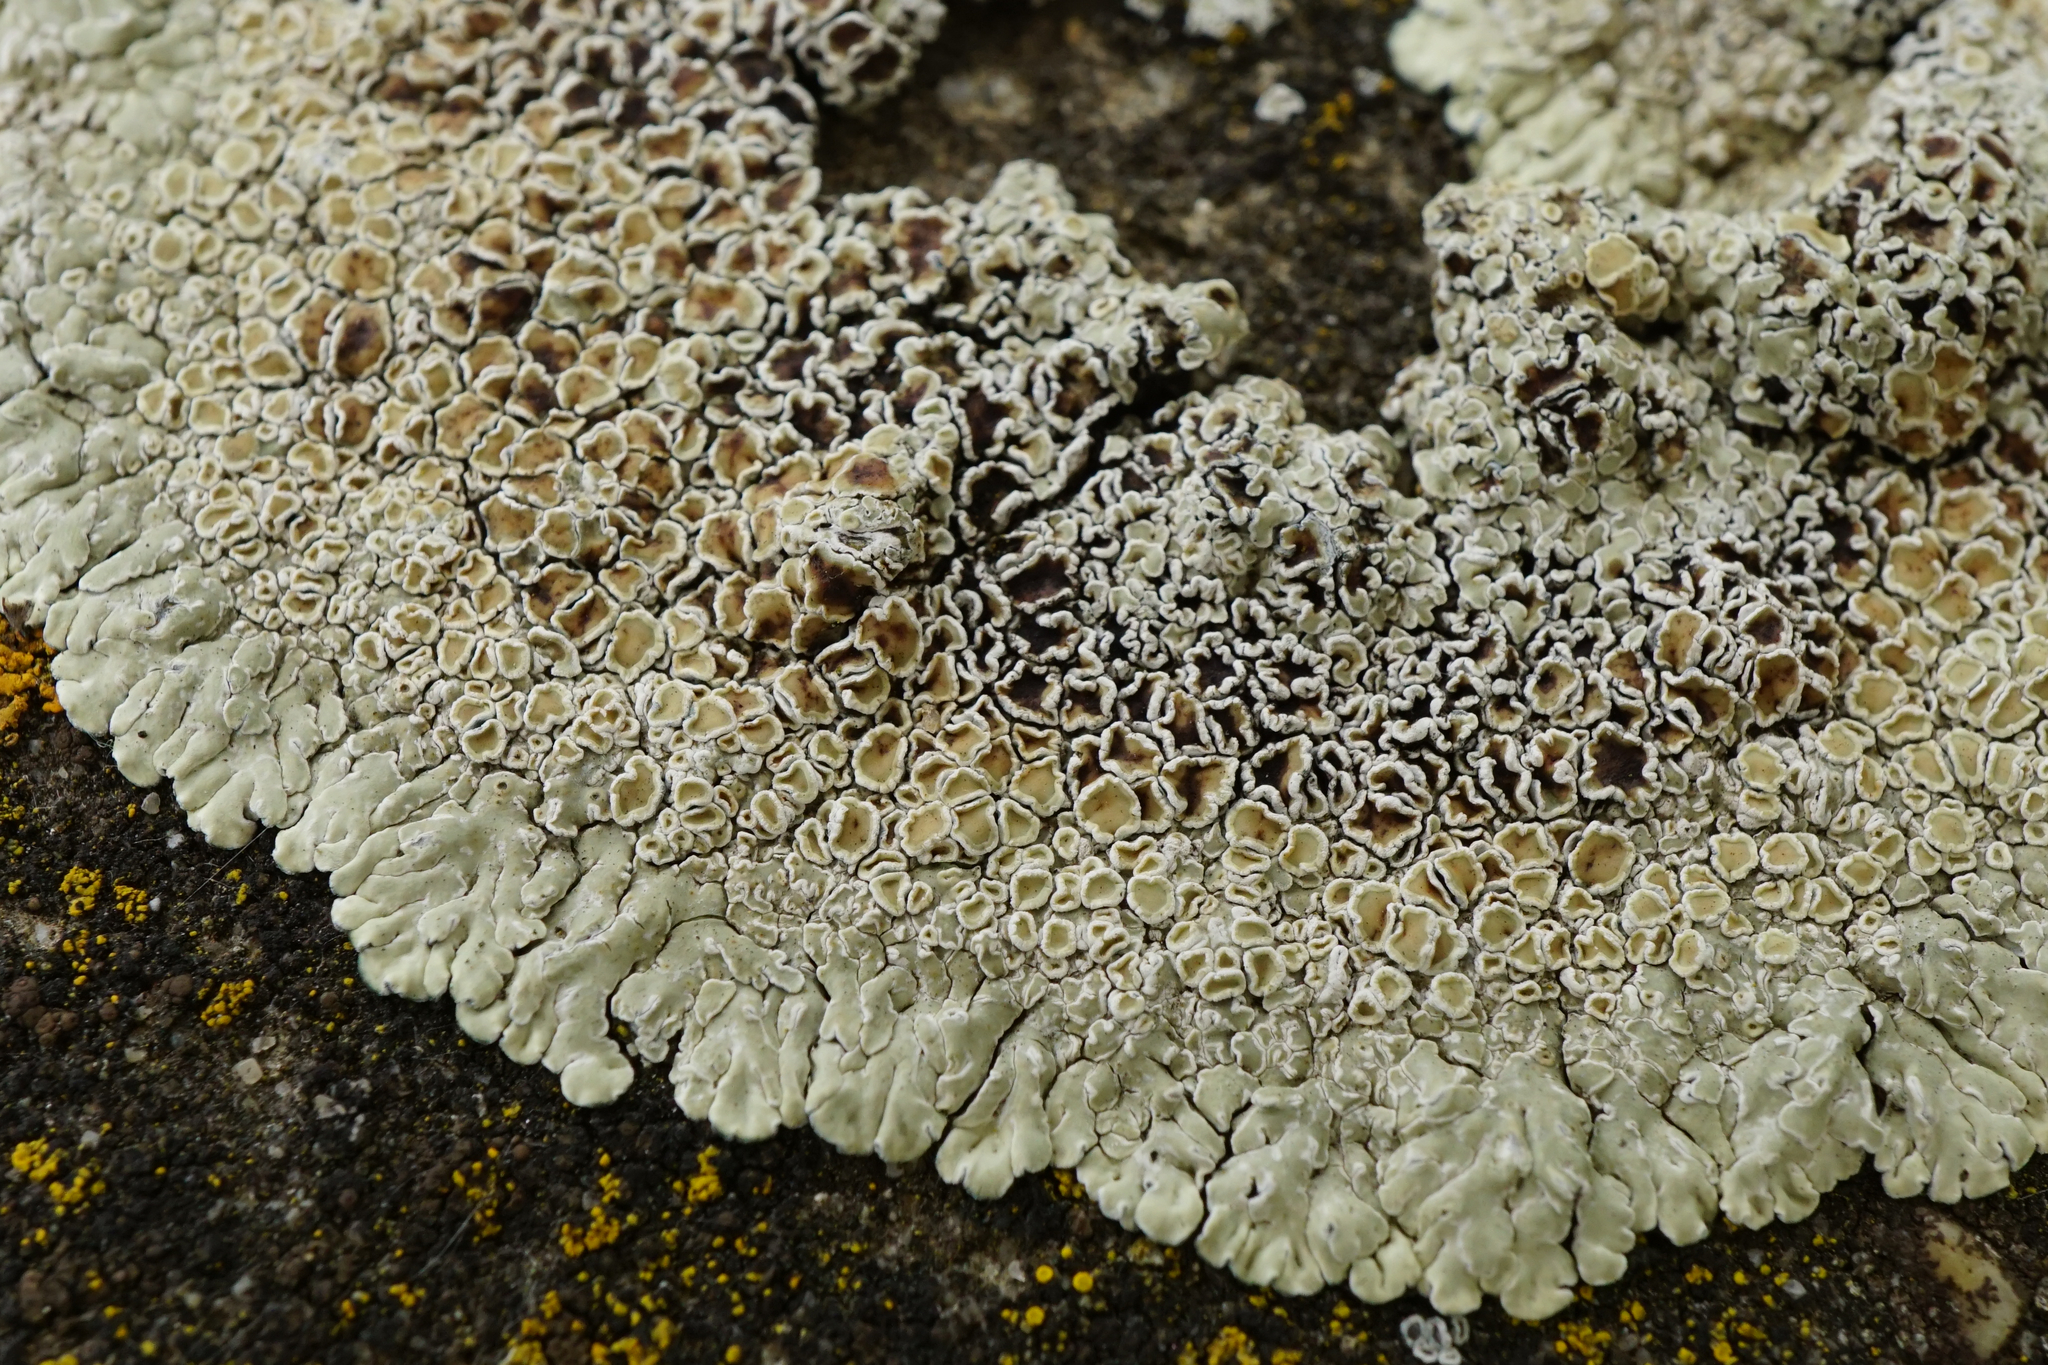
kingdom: Fungi
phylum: Ascomycota
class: Lecanoromycetes
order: Lecanorales
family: Lecanoraceae
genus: Protoparmeliopsis
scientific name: Protoparmeliopsis muralis
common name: Stonewall rim lichen
